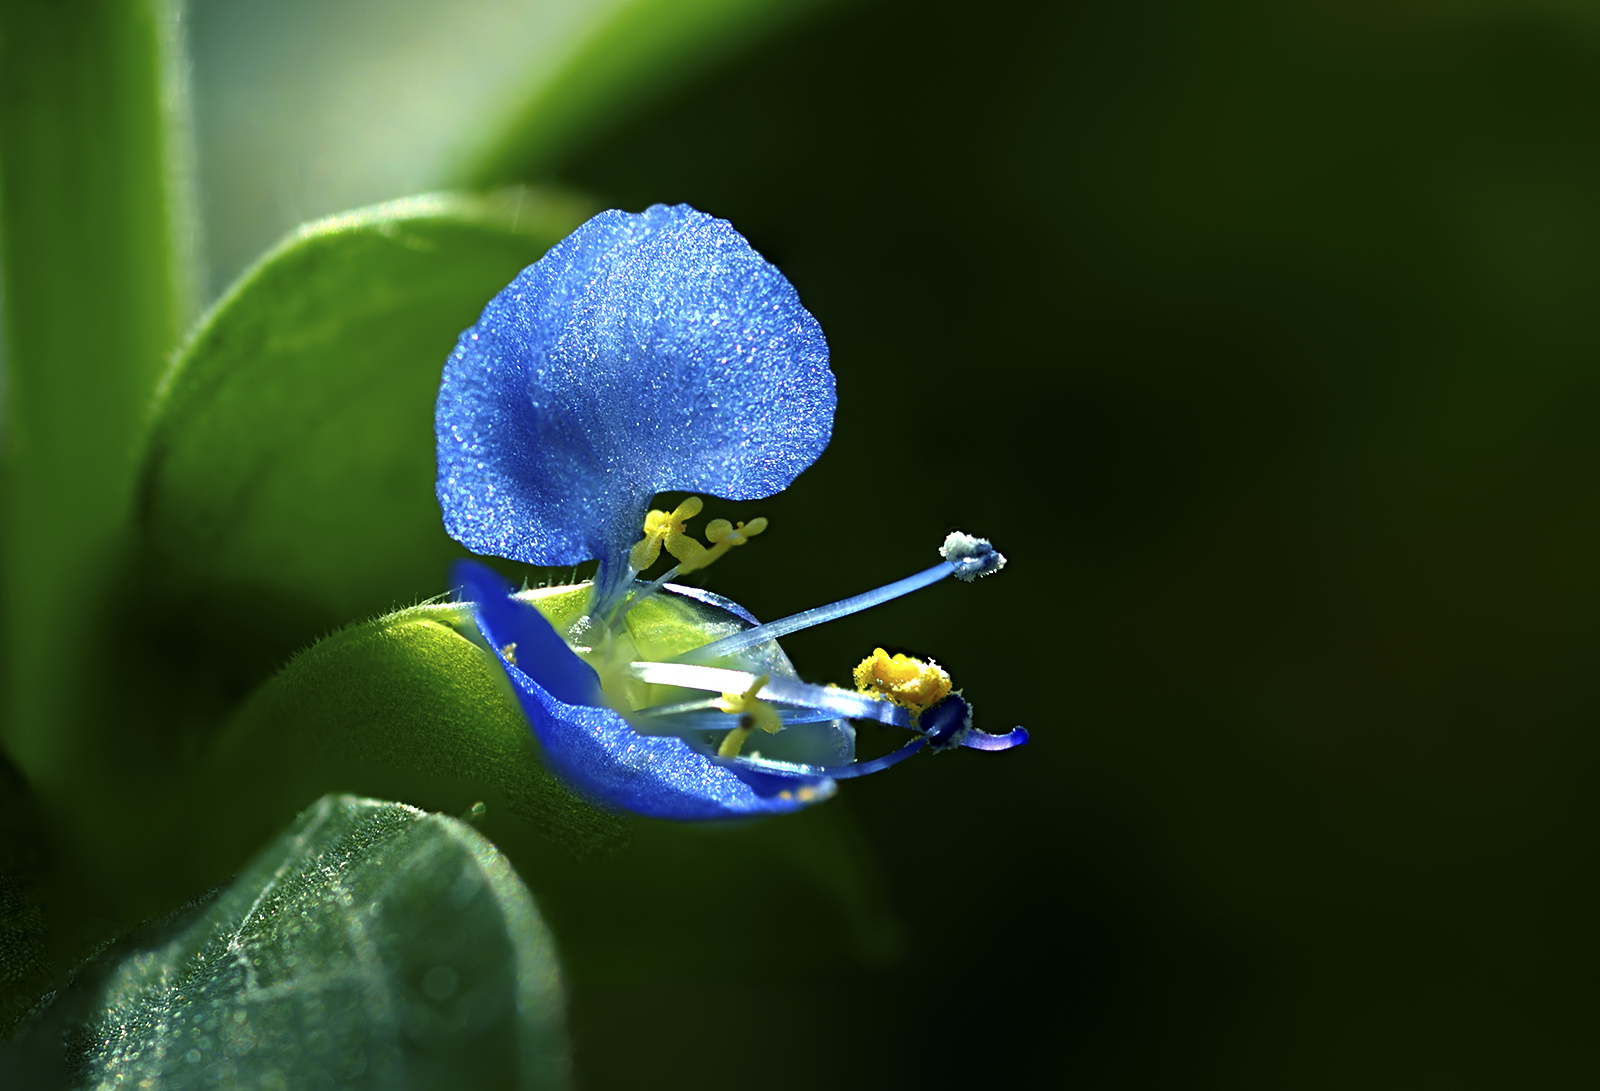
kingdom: Plantae
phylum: Tracheophyta
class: Liliopsida
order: Commelinales
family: Commelinaceae
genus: Commelina
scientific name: Commelina benghalensis
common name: Jio
